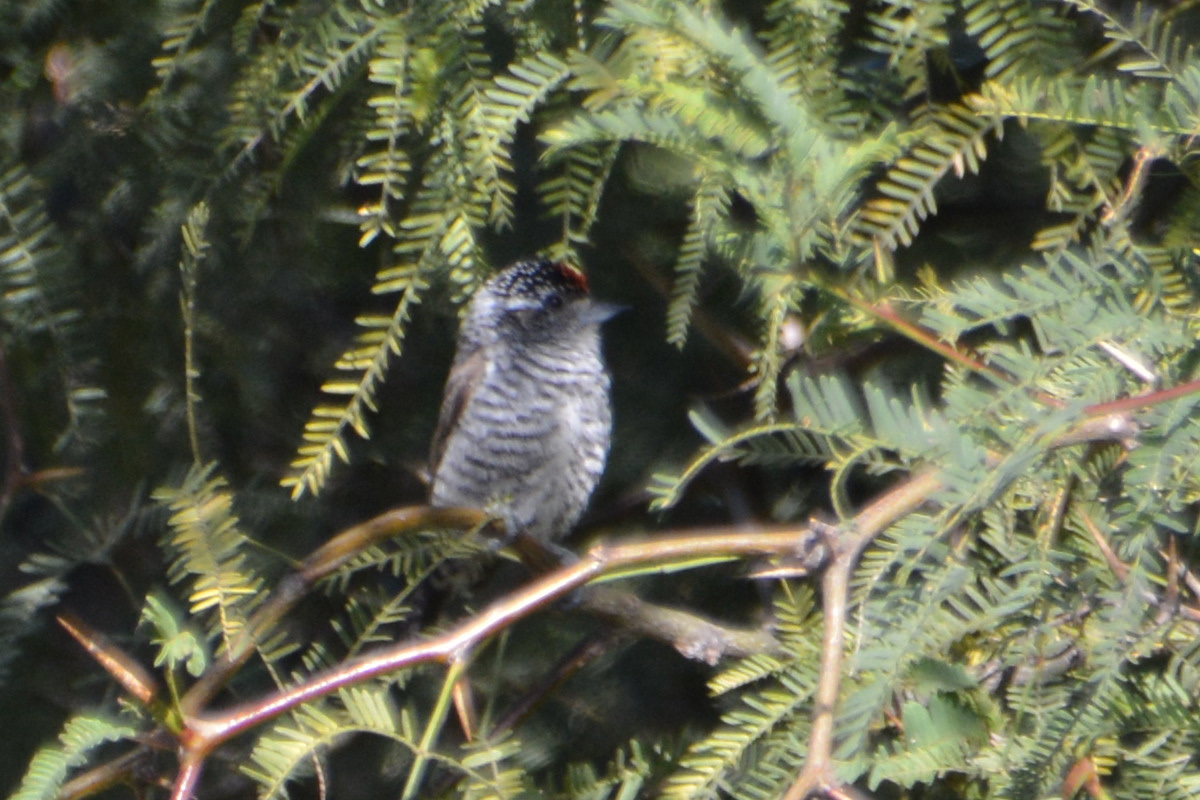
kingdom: Animalia
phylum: Chordata
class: Aves
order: Piciformes
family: Picidae
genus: Picumnus
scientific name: Picumnus cirratus
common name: White-barred piculet
